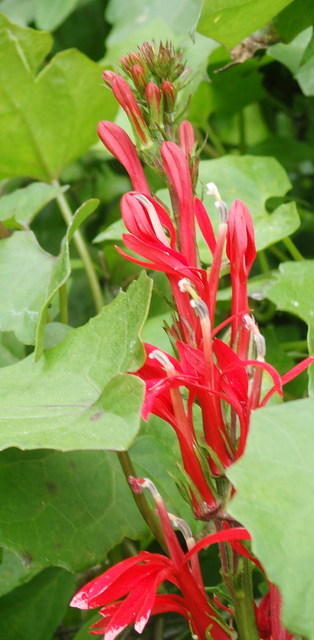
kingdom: Plantae
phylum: Tracheophyta
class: Magnoliopsida
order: Asterales
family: Campanulaceae
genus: Lobelia
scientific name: Lobelia cardinalis
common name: Cardinal flower
